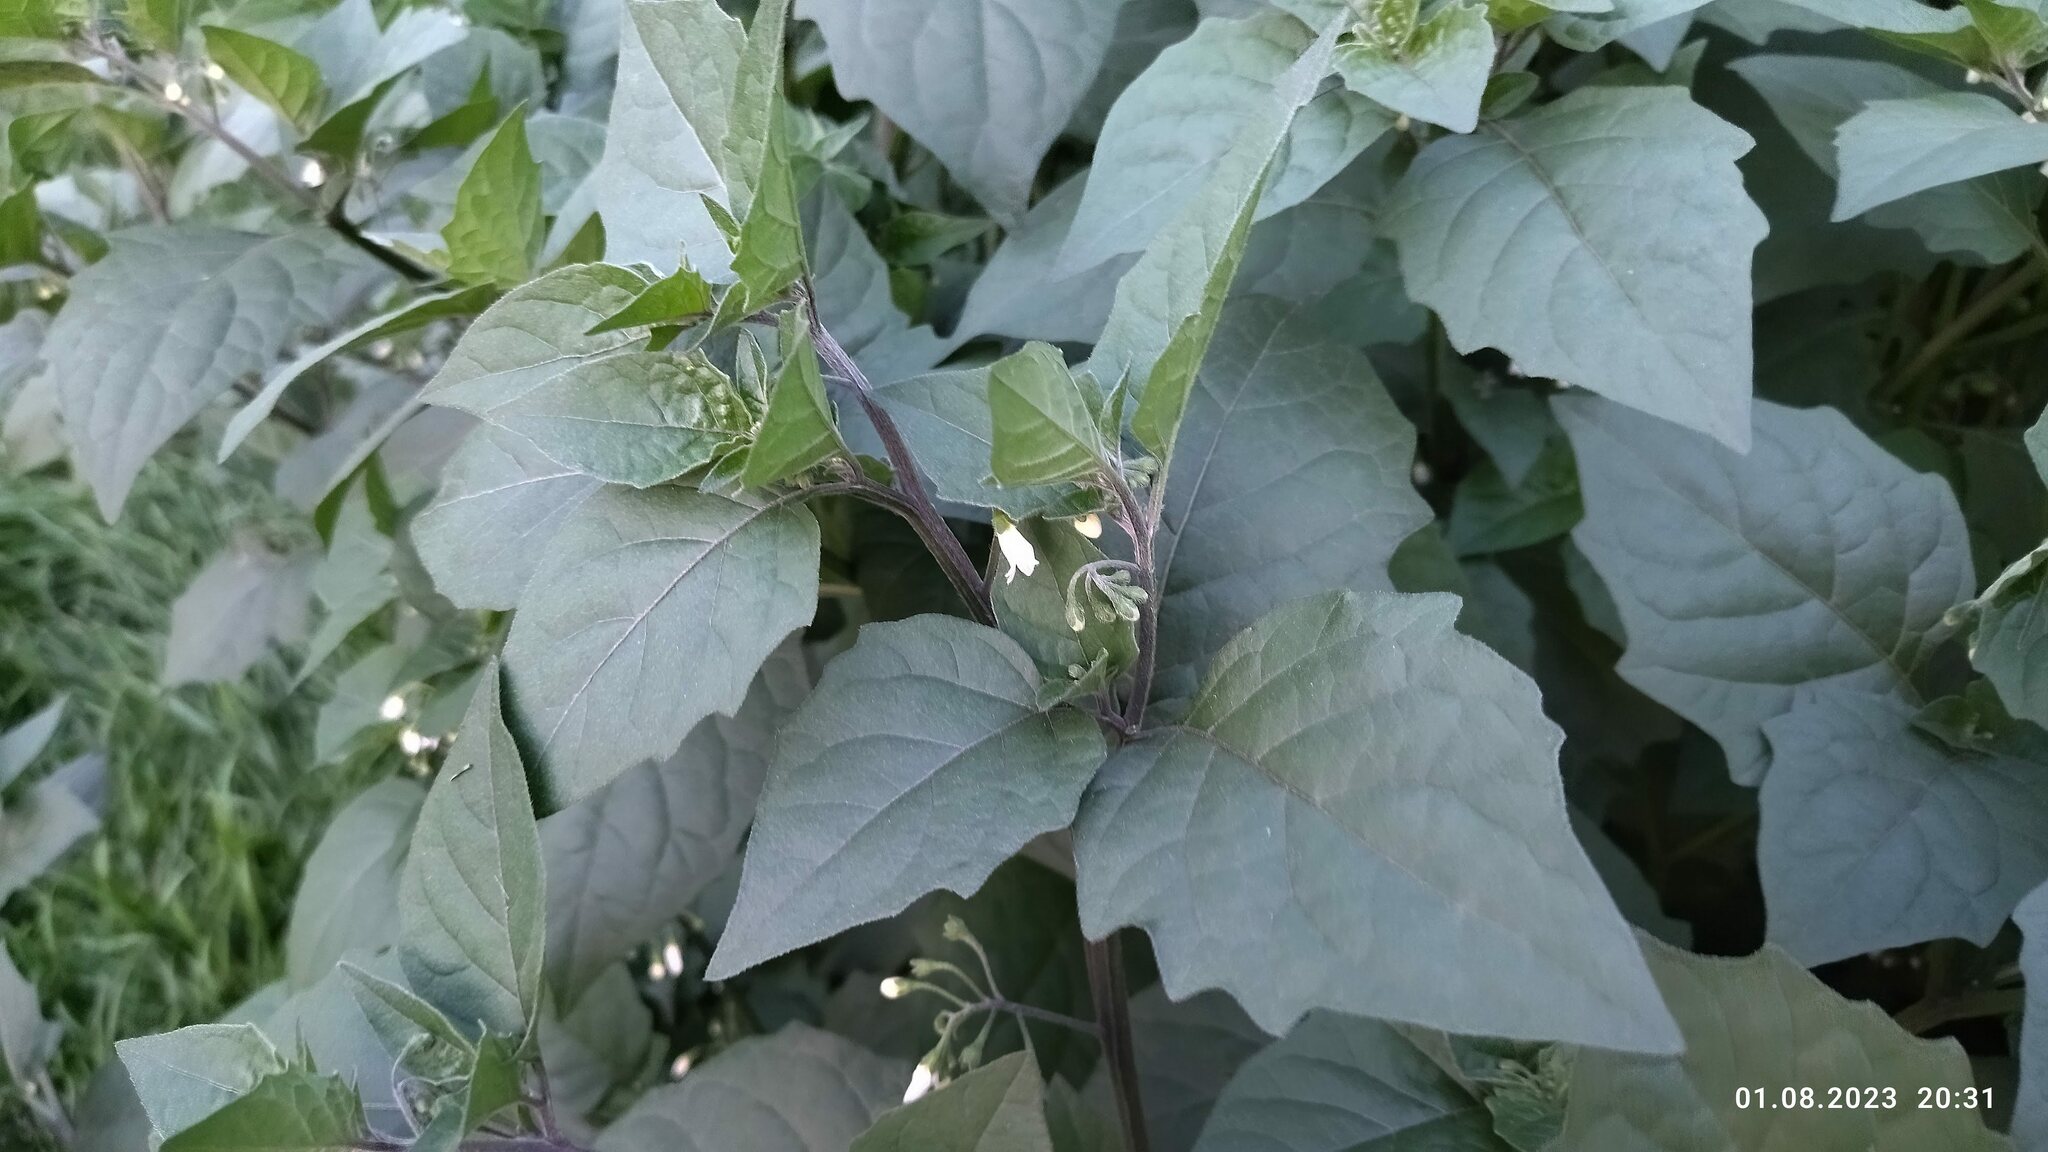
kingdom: Plantae
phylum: Tracheophyta
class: Magnoliopsida
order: Solanales
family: Solanaceae
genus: Solanum
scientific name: Solanum nigrum
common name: Black nightshade
